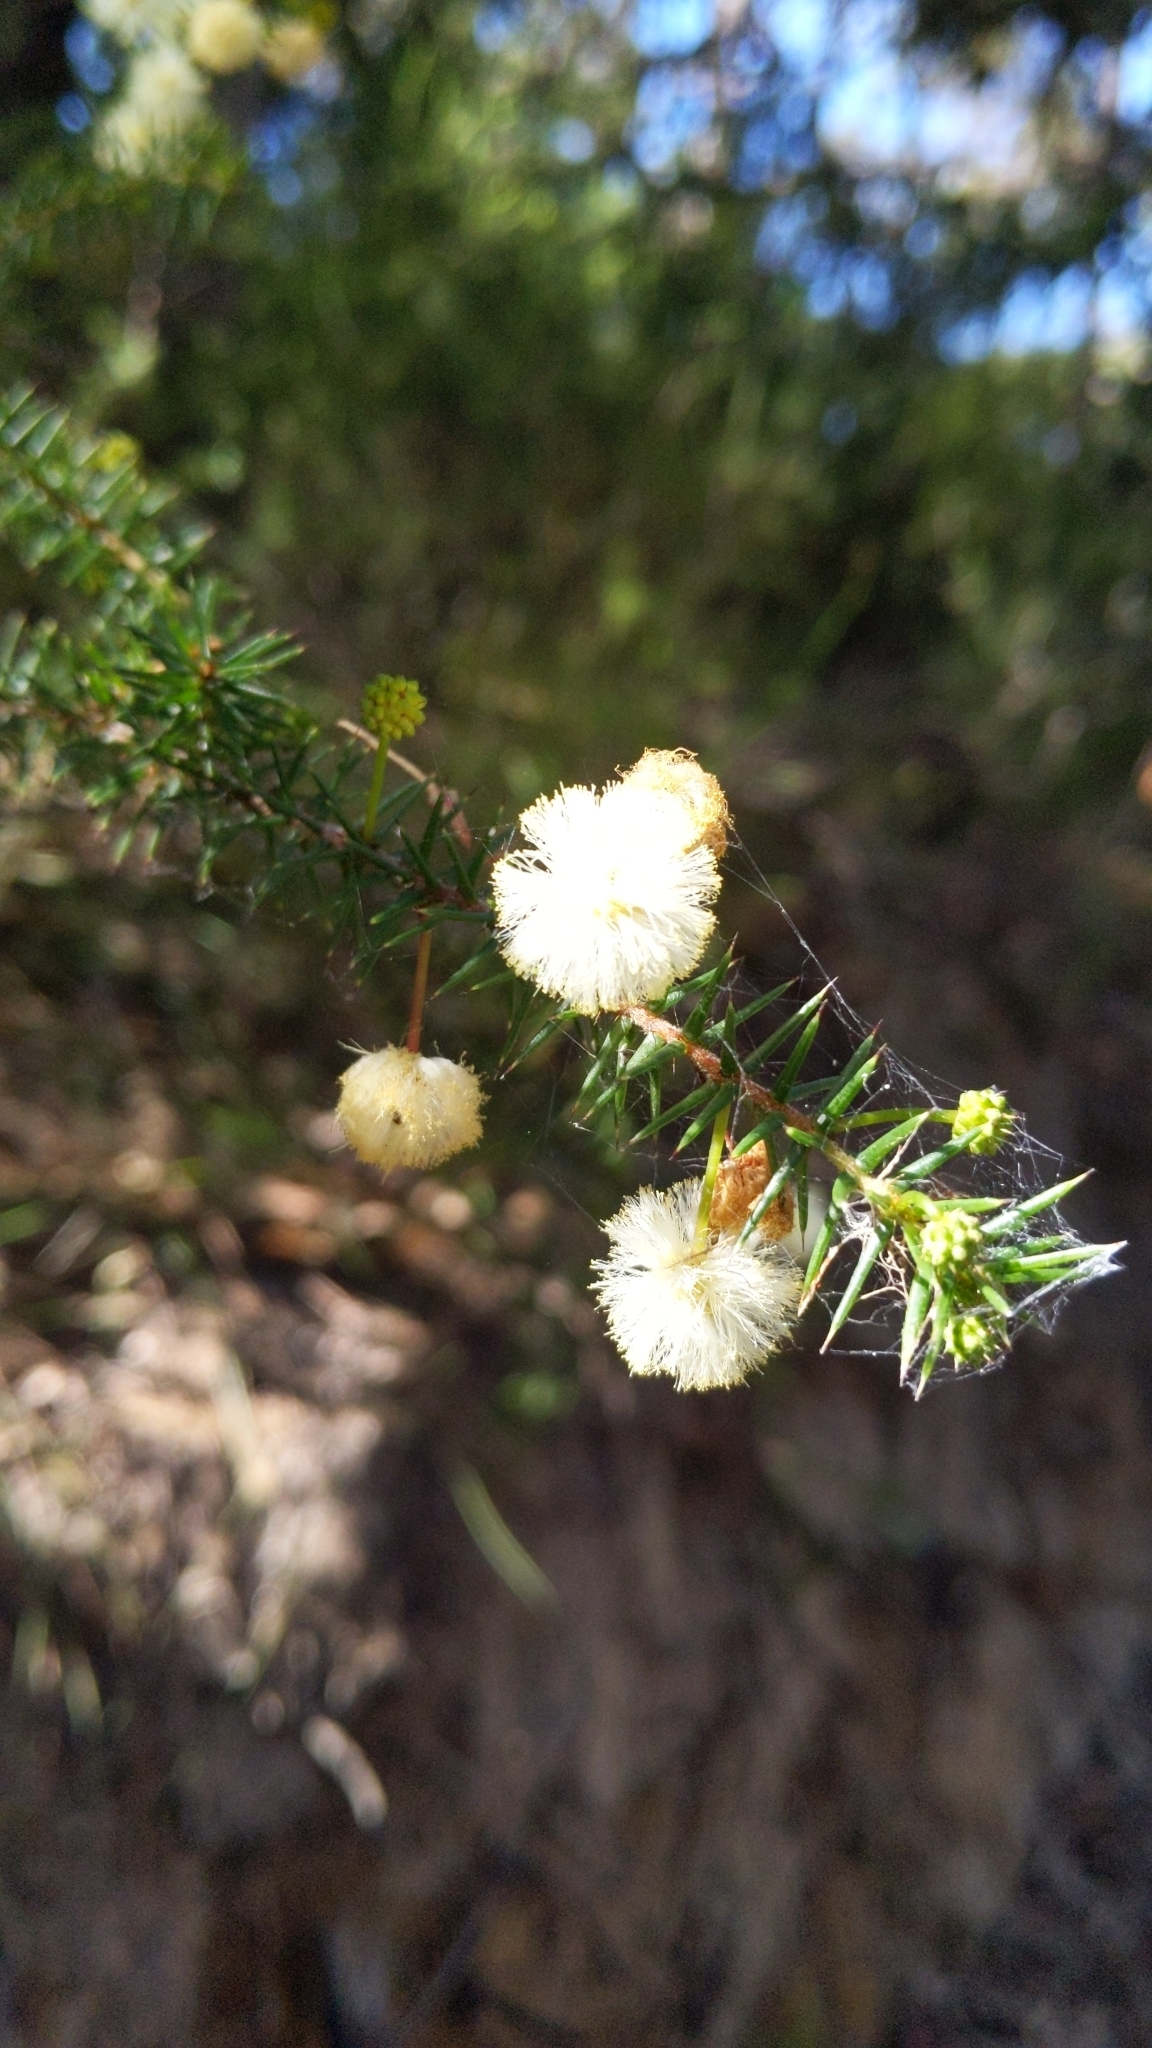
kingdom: Plantae
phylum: Tracheophyta
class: Magnoliopsida
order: Fabales
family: Fabaceae
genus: Acacia
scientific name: Acacia ulicifolia
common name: Juniper wattle
